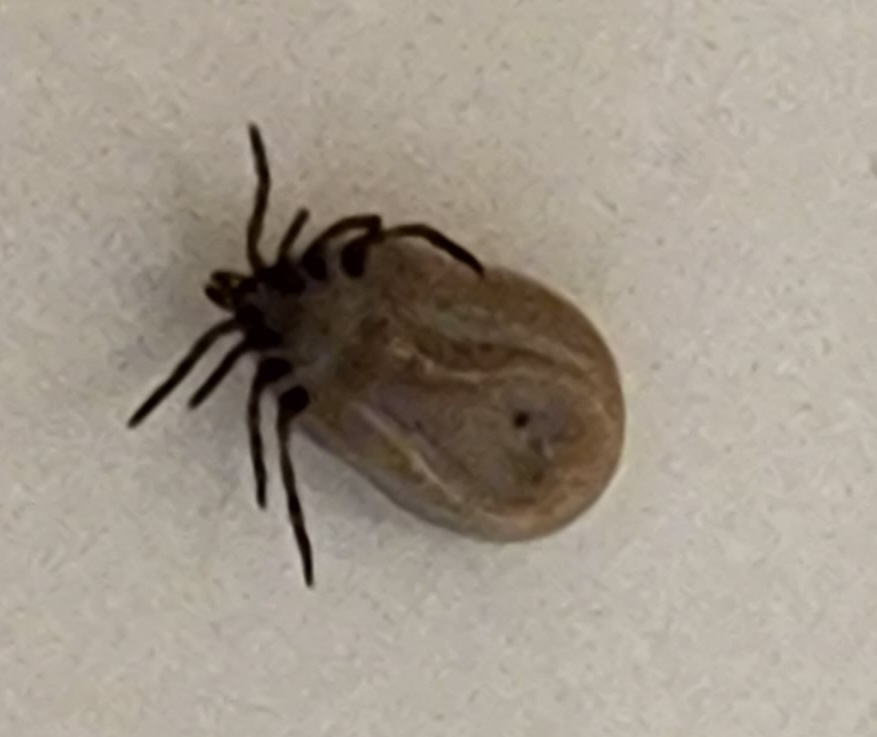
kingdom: Animalia
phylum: Arthropoda
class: Arachnida
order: Ixodida
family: Ixodidae
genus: Ixodes
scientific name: Ixodes scapularis
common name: Black legged tick
